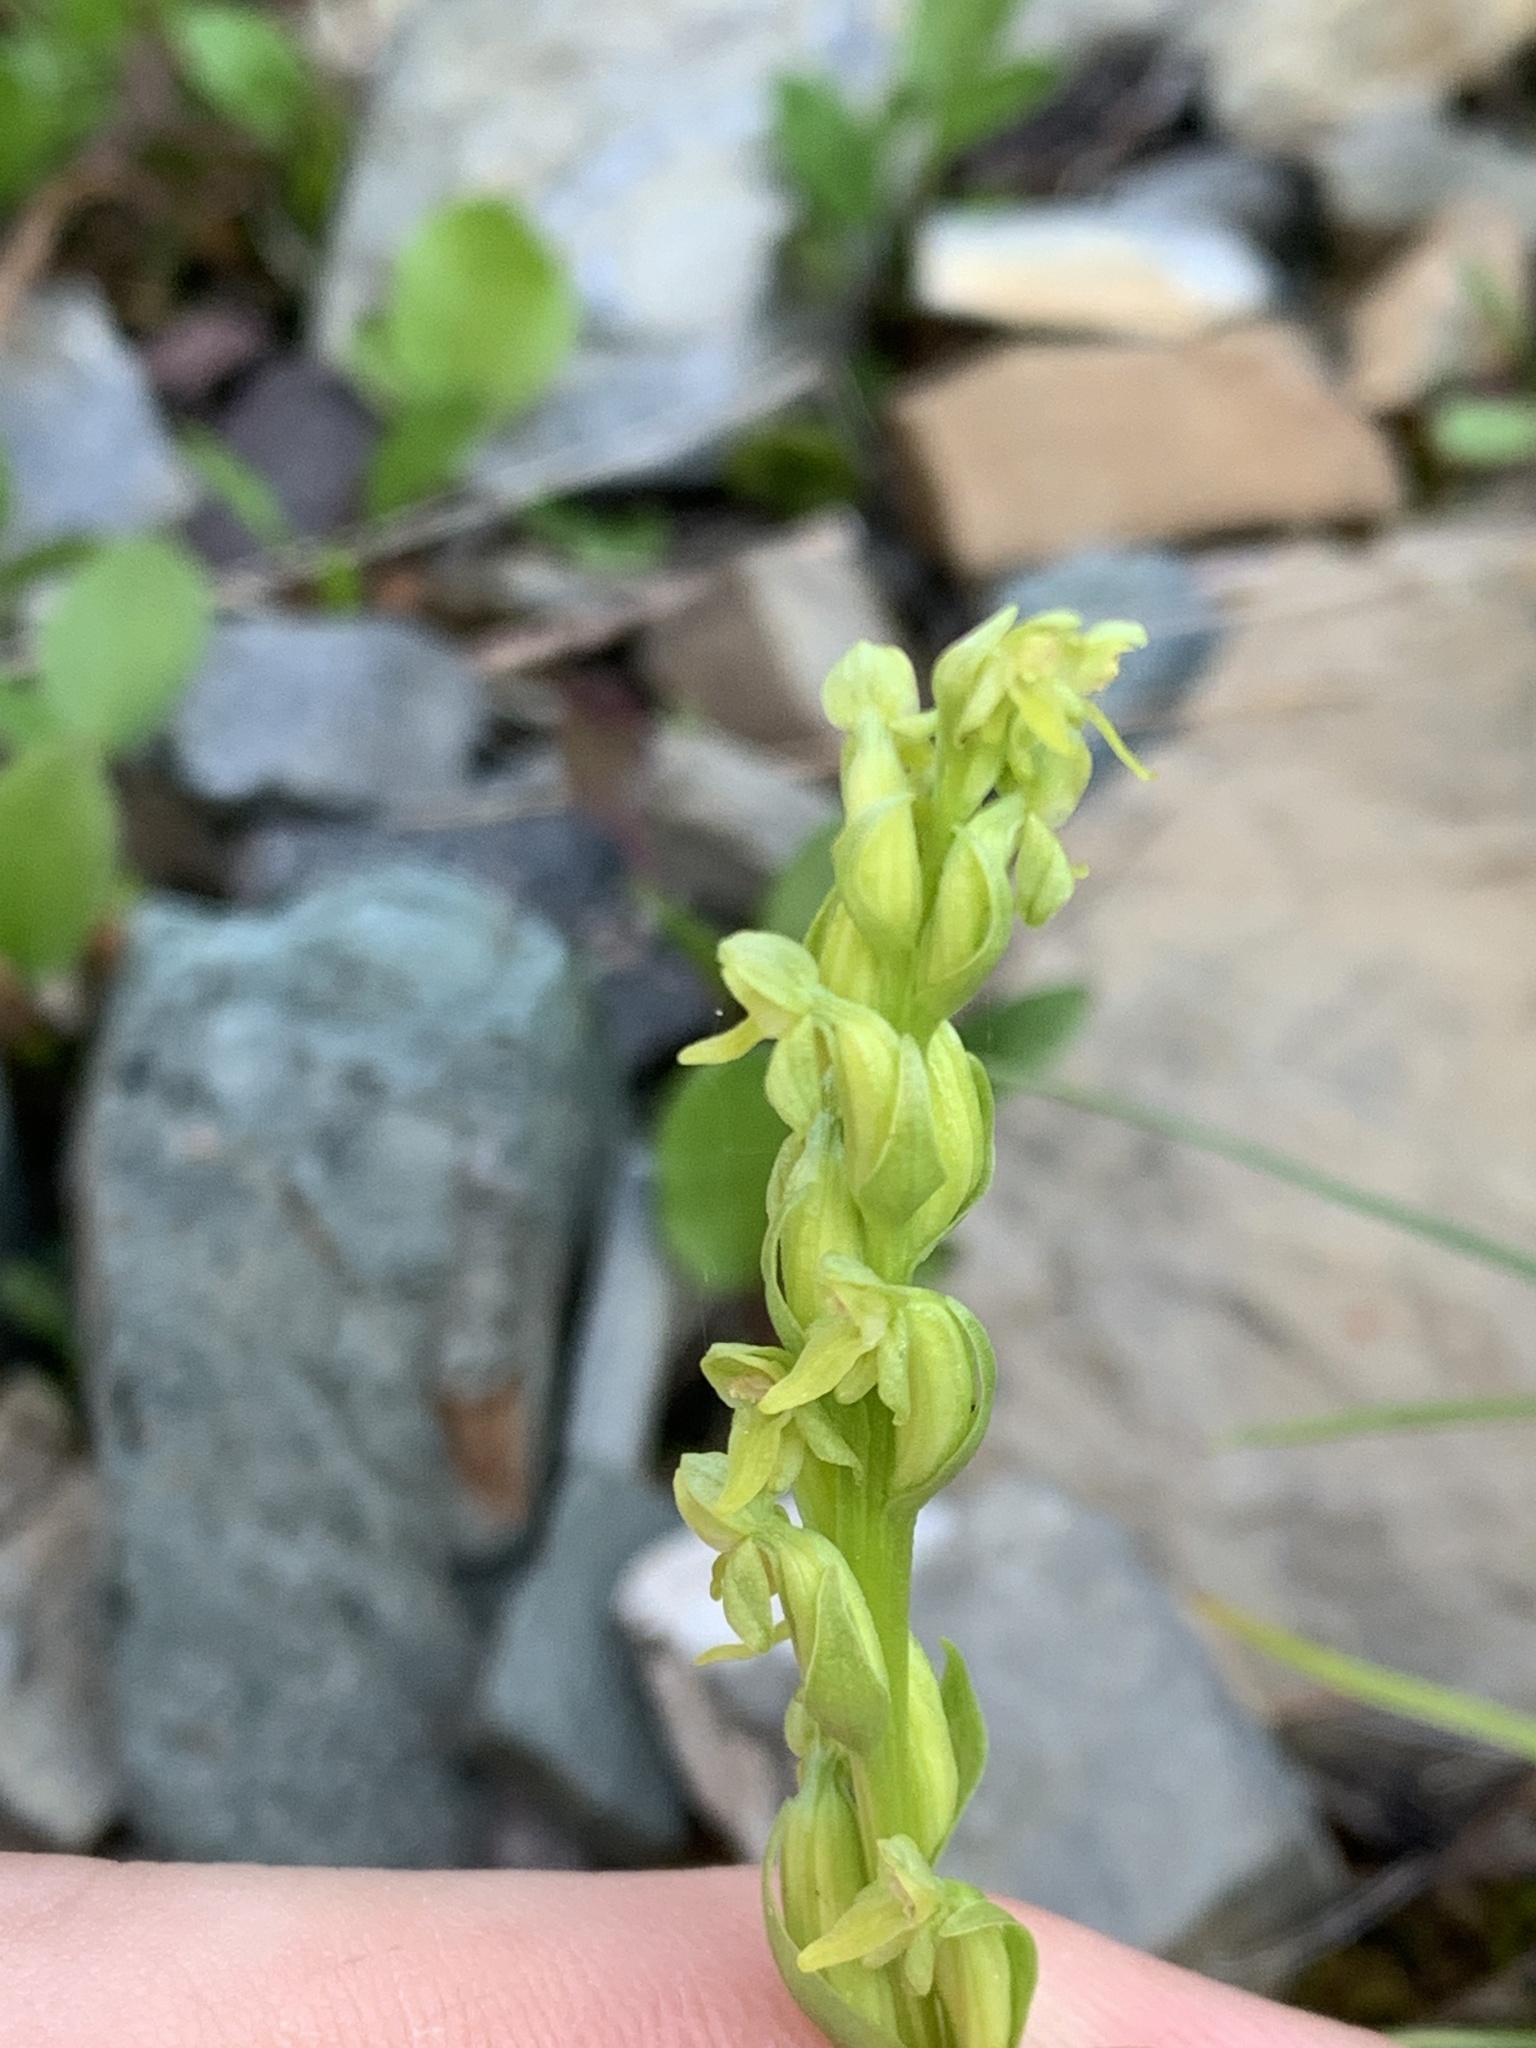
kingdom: Plantae
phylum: Tracheophyta
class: Liliopsida
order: Asparagales
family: Orchidaceae
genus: Platanthera
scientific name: Platanthera aquilonis
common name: Northern green orchid
